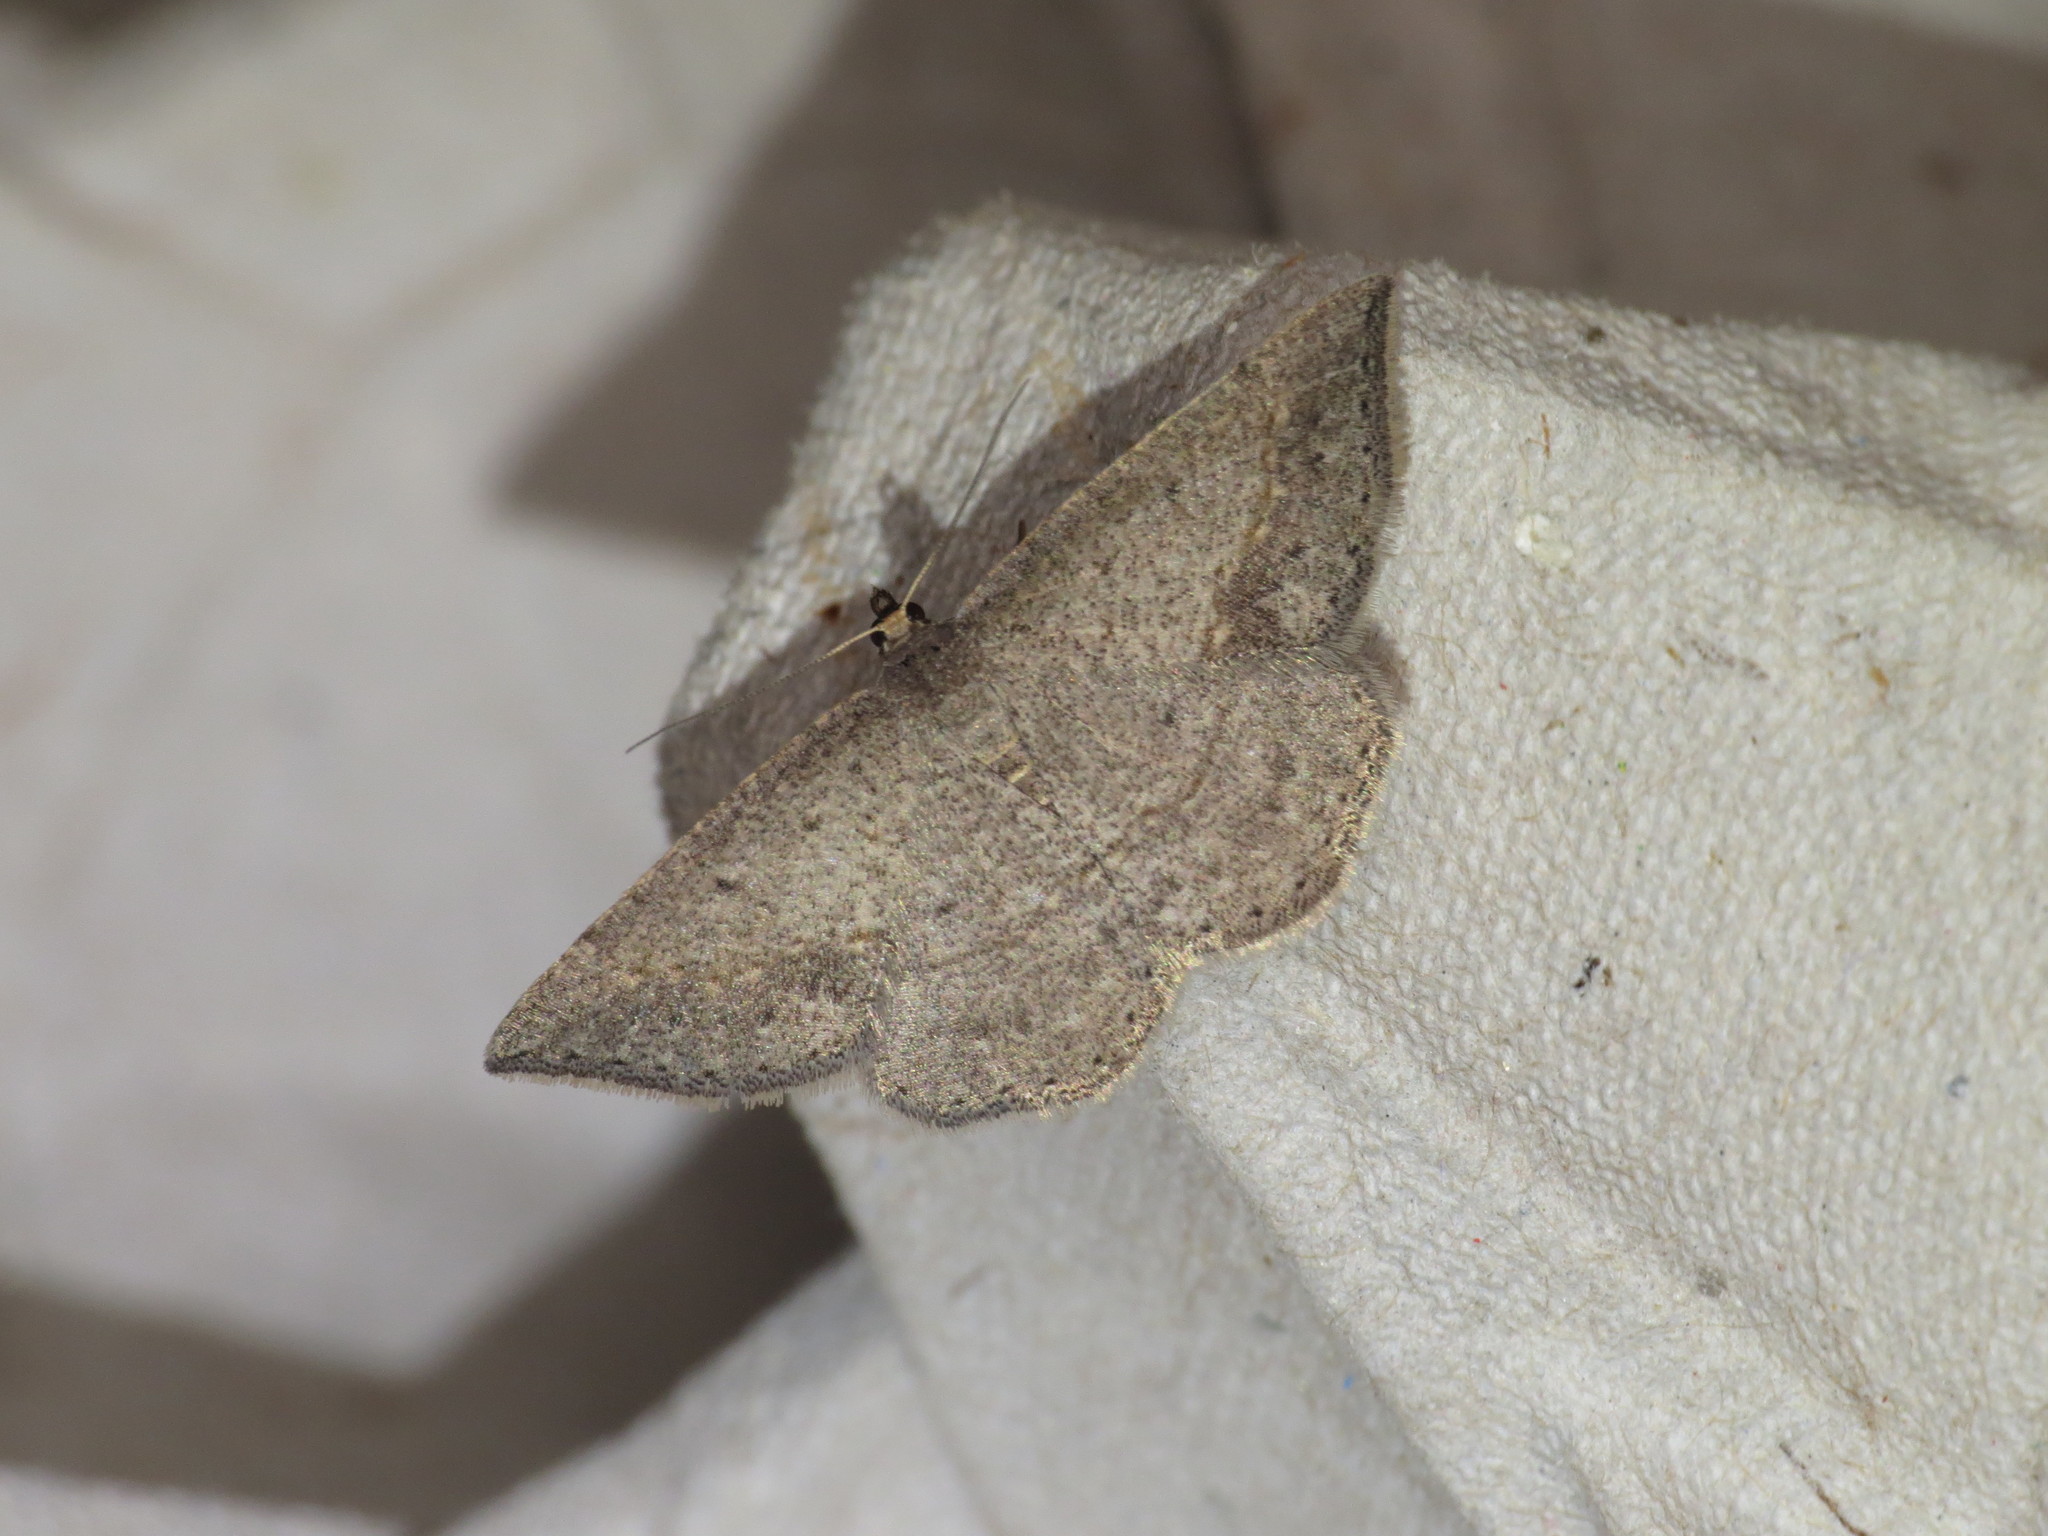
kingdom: Animalia
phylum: Arthropoda
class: Insecta
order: Lepidoptera
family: Geometridae
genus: Taxeotis
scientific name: Taxeotis intermixtaria
